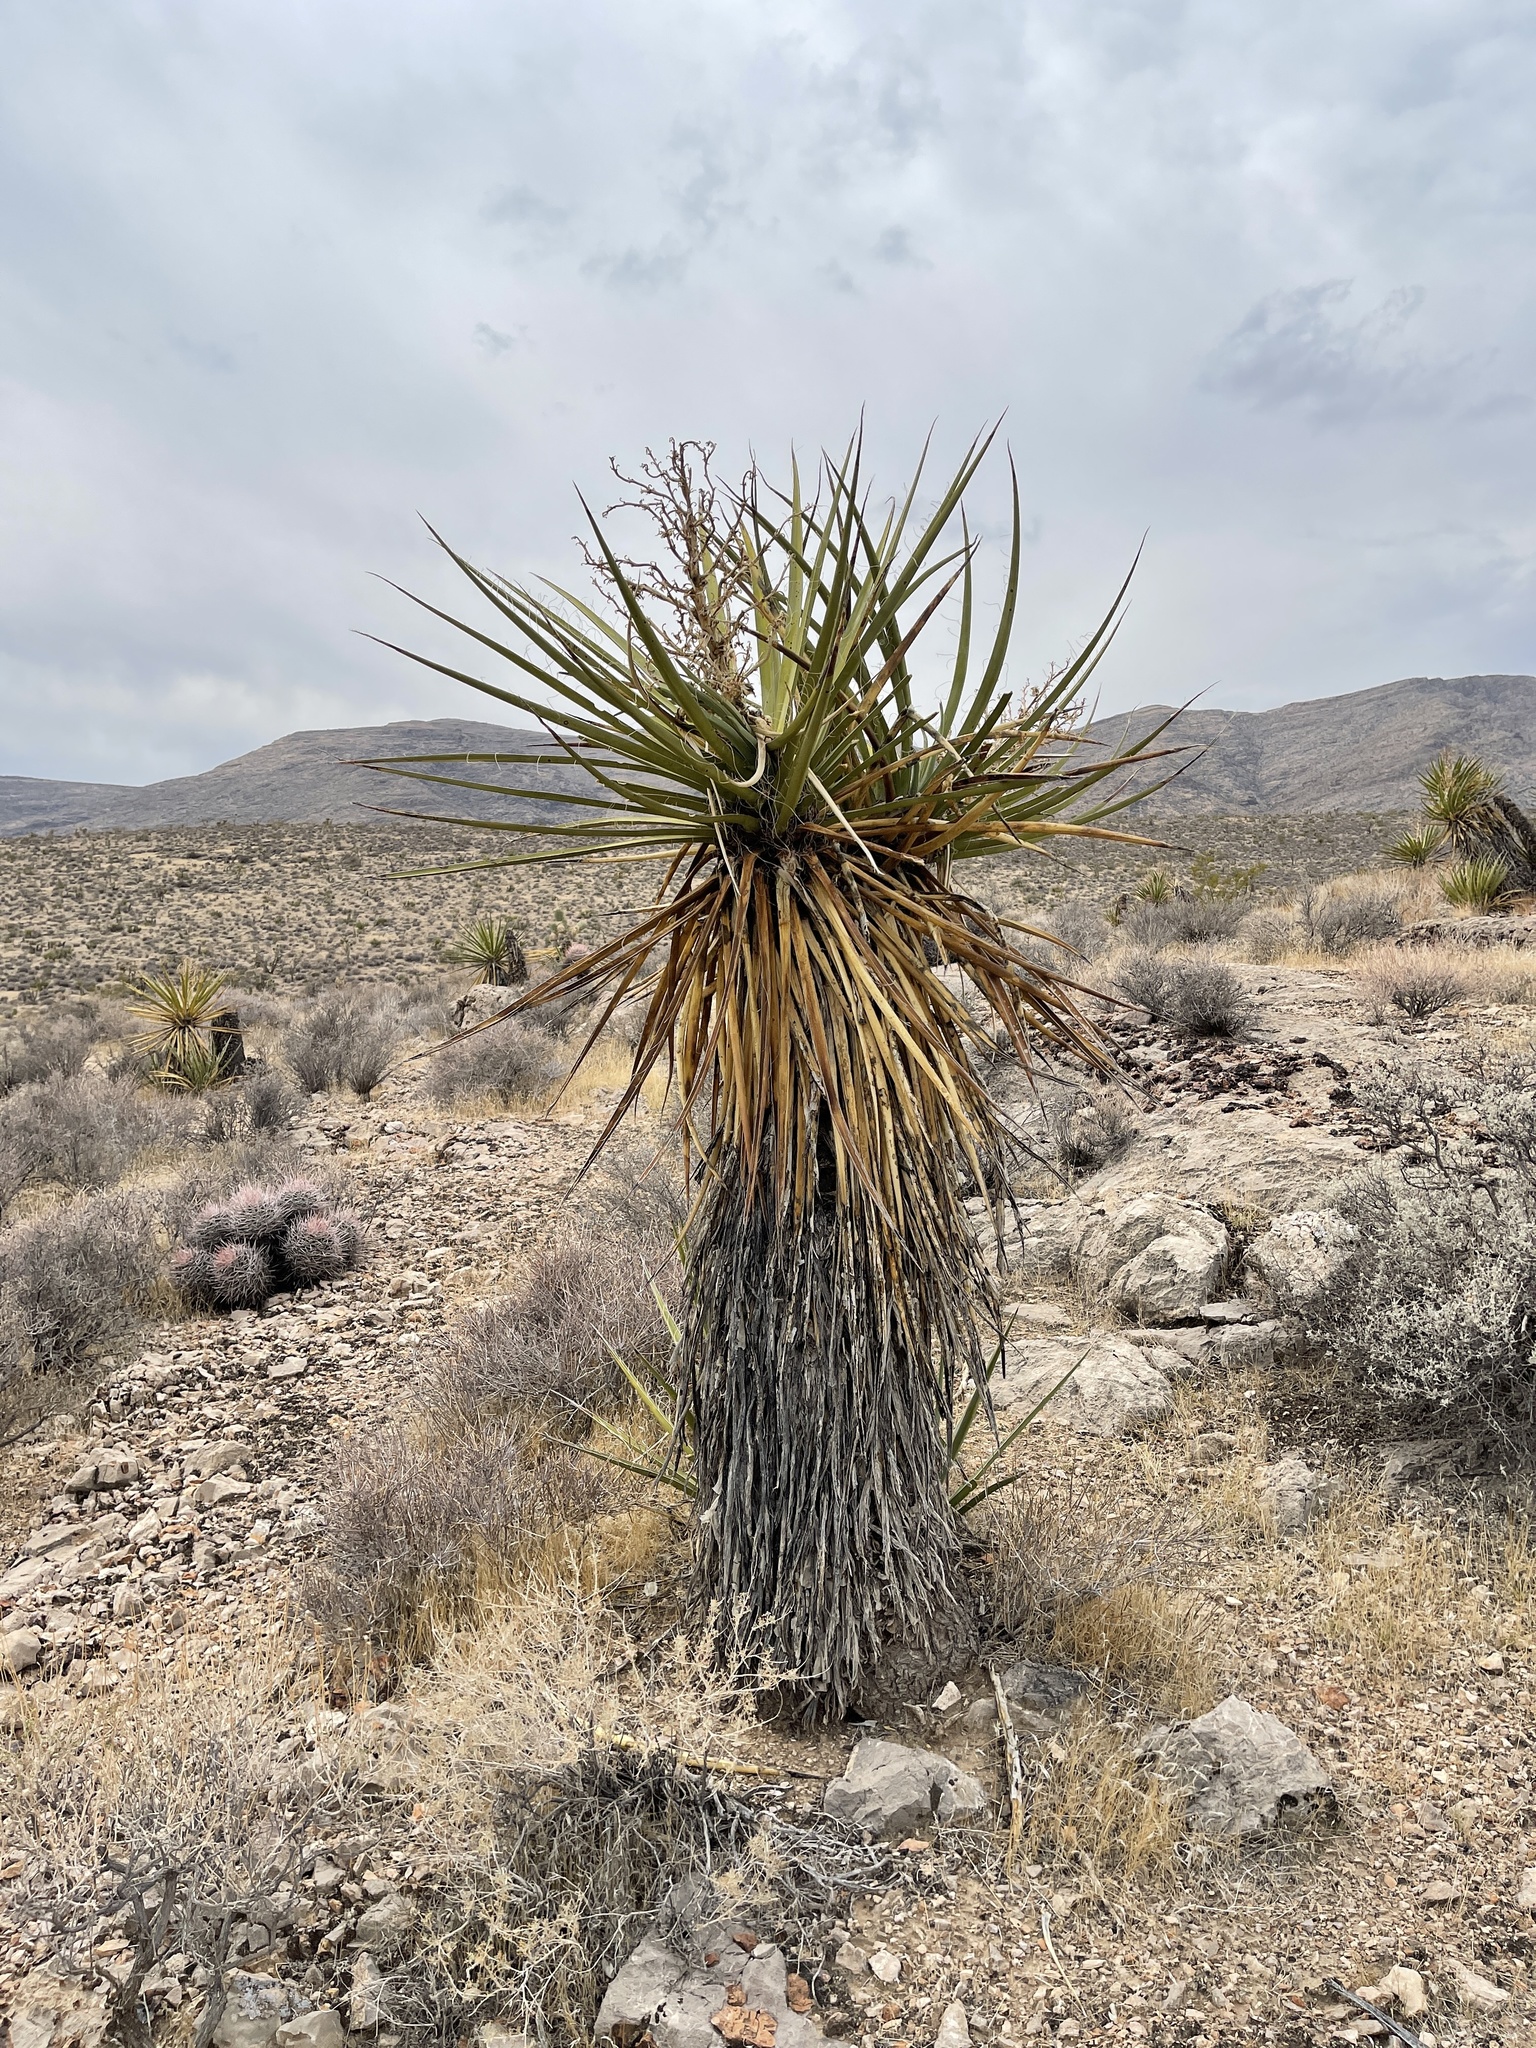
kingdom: Plantae
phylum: Tracheophyta
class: Liliopsida
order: Asparagales
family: Asparagaceae
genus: Yucca
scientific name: Yucca schidigera
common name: Mojave yucca
